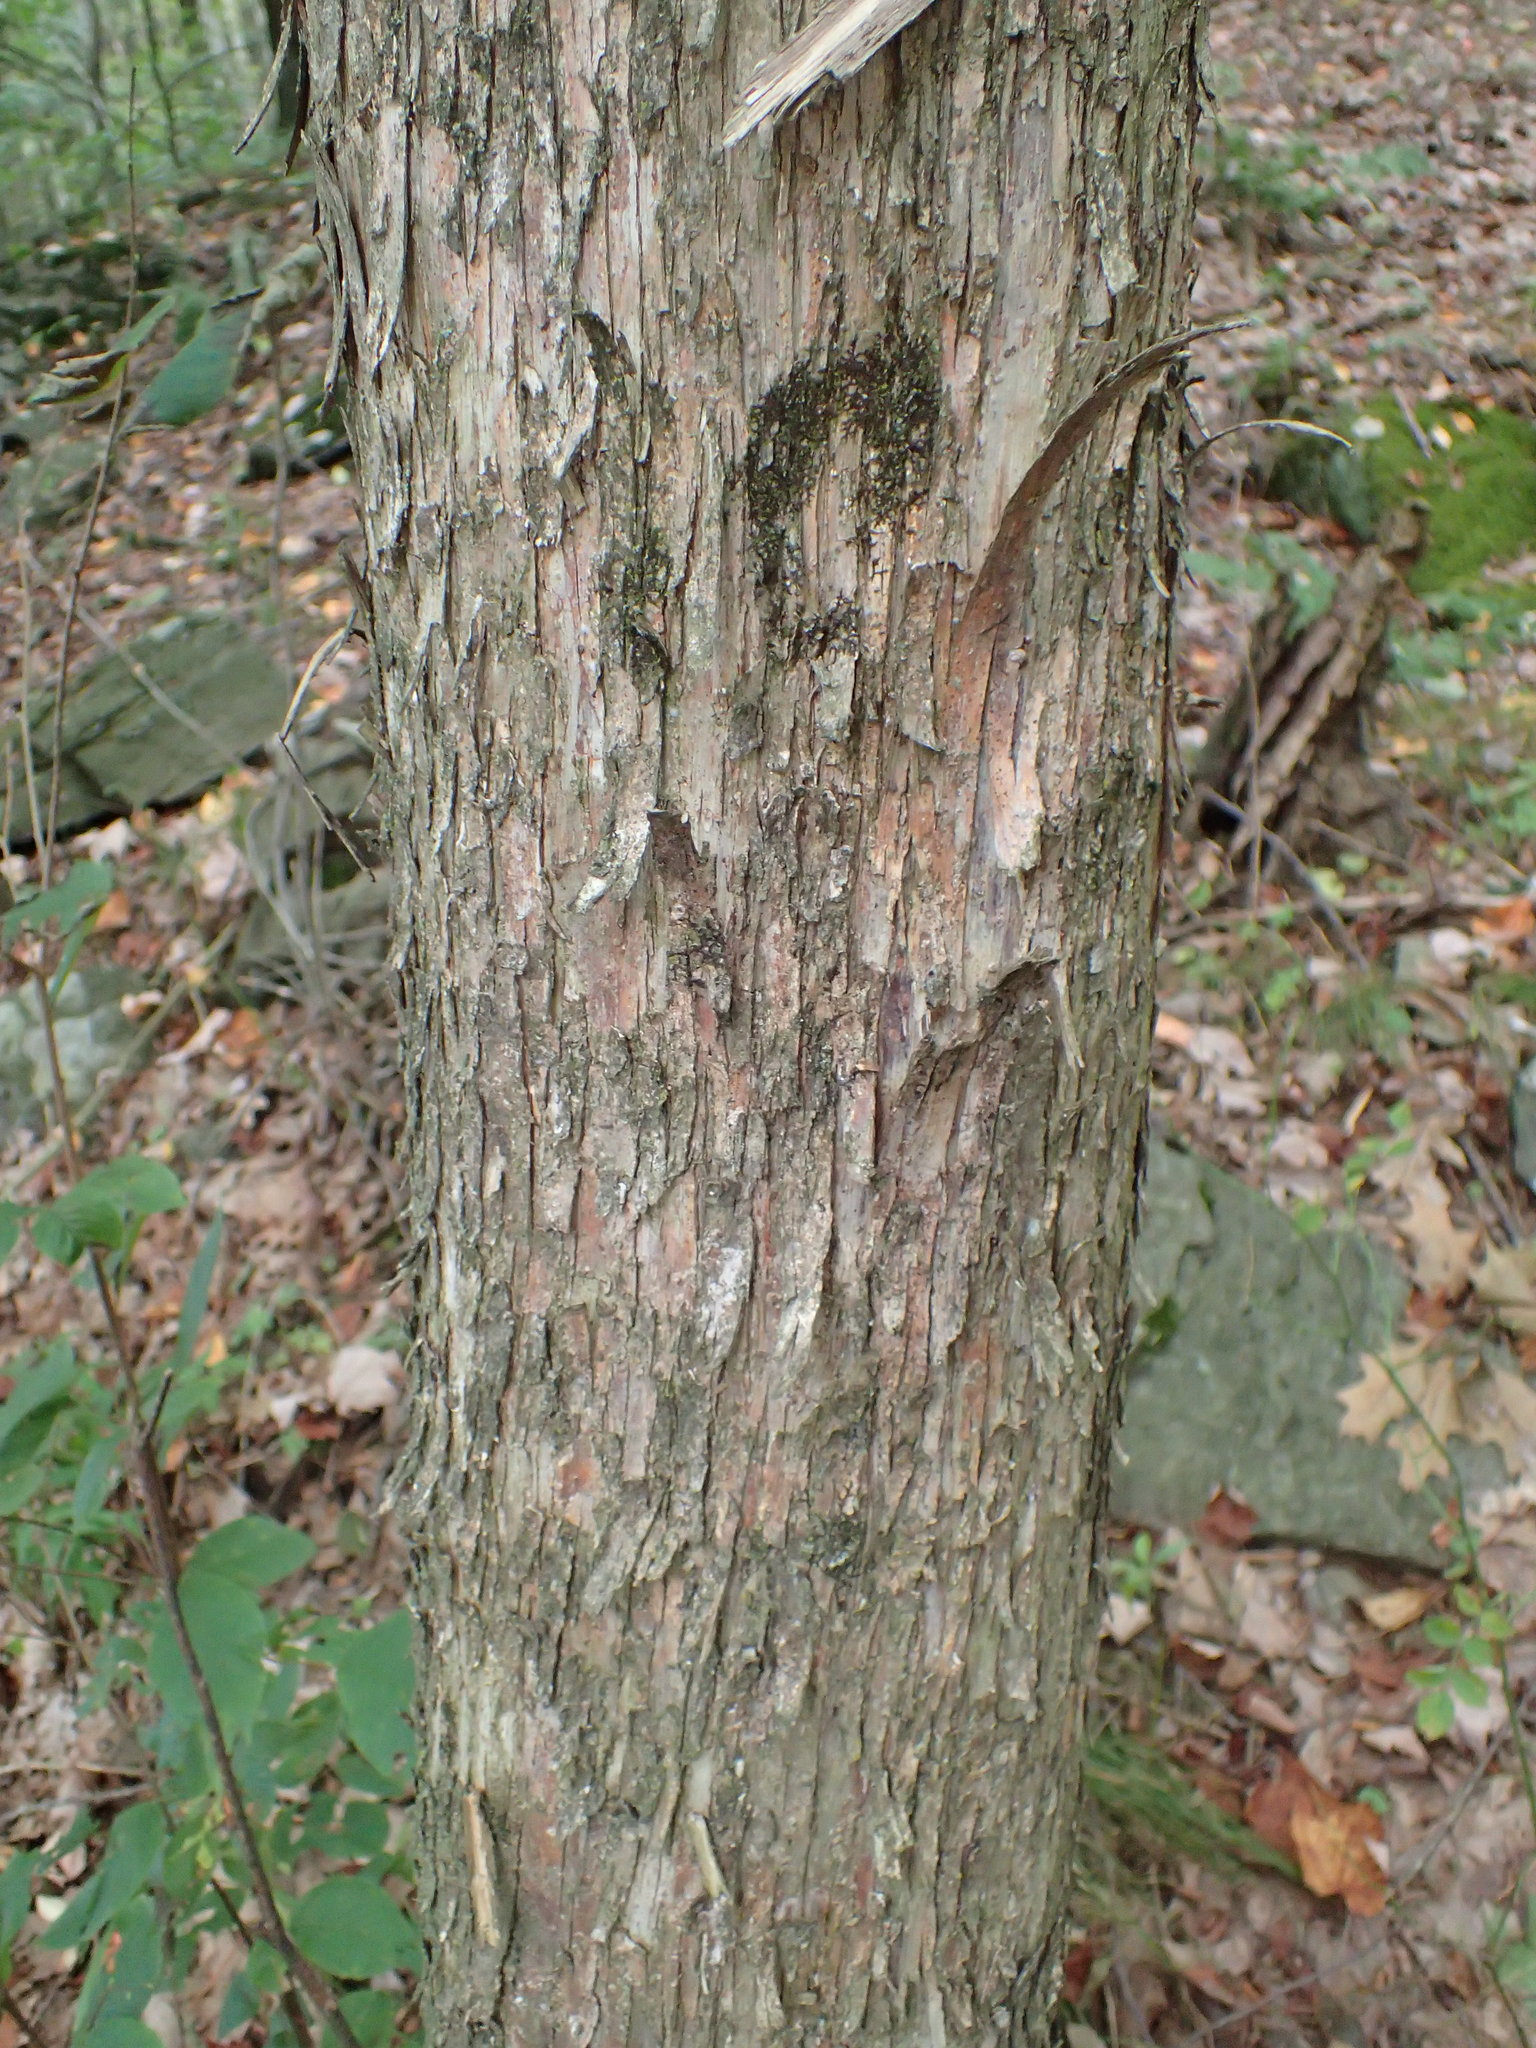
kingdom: Plantae
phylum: Tracheophyta
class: Magnoliopsida
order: Fagales
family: Betulaceae
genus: Ostrya
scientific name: Ostrya virginiana
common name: Ironwood
